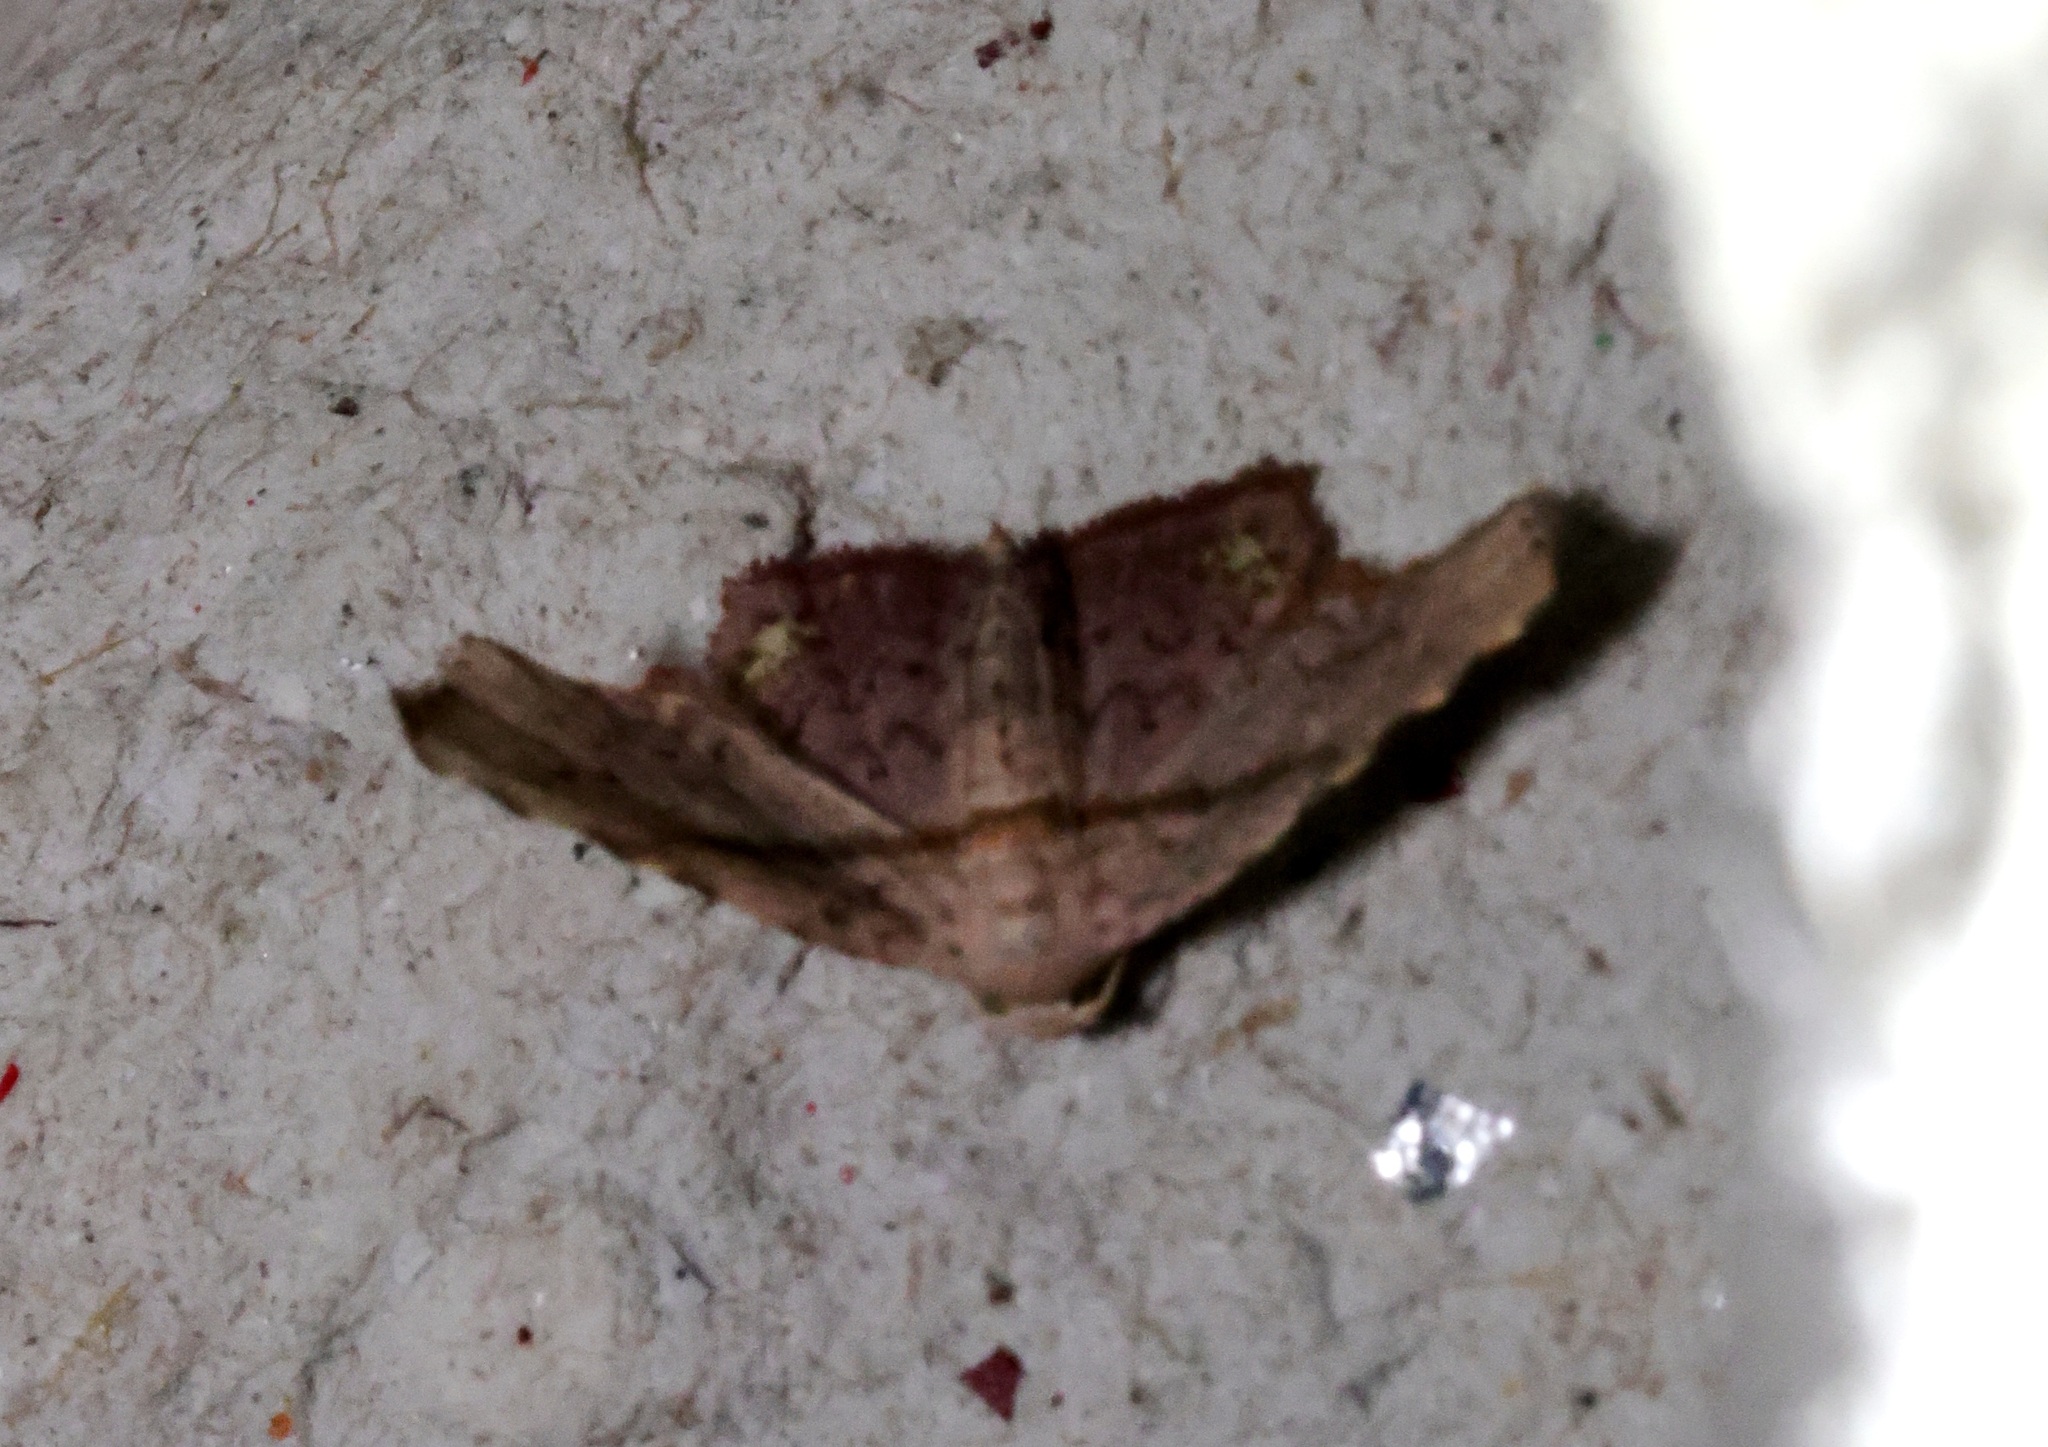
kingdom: Animalia
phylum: Arthropoda
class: Insecta
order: Lepidoptera
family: Noctuidae
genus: Niaccaba
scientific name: Niaccaba sumptualis
